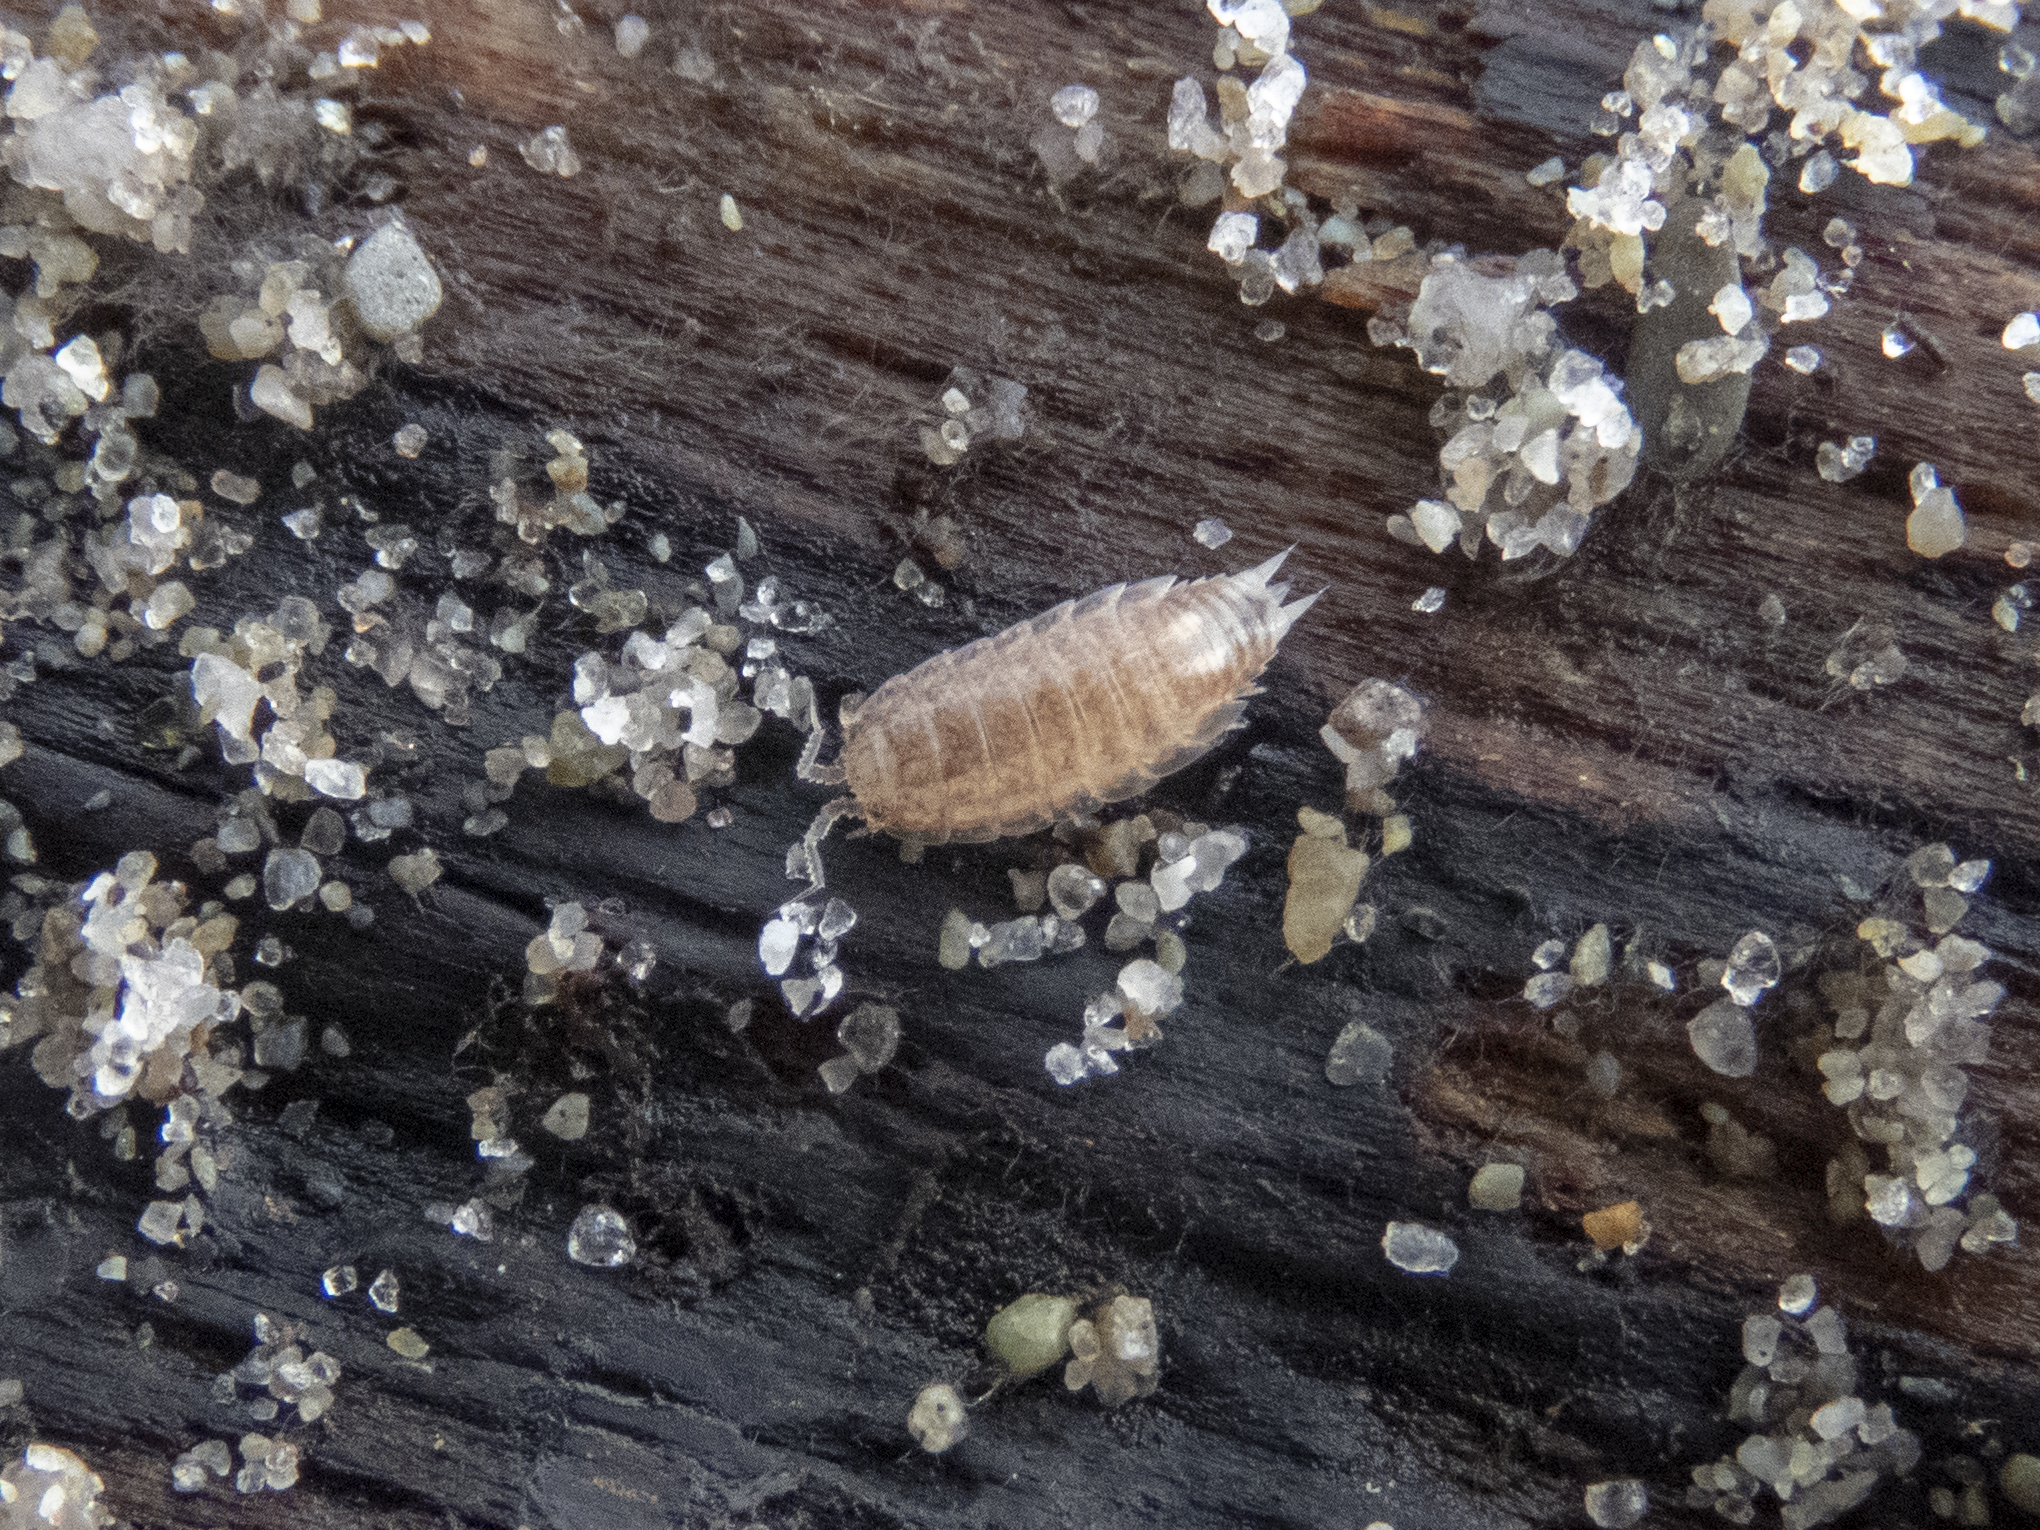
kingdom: Animalia
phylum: Arthropoda
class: Malacostraca
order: Isopoda
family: Styloniscidae
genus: Styloniscus
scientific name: Styloniscus commensalis
